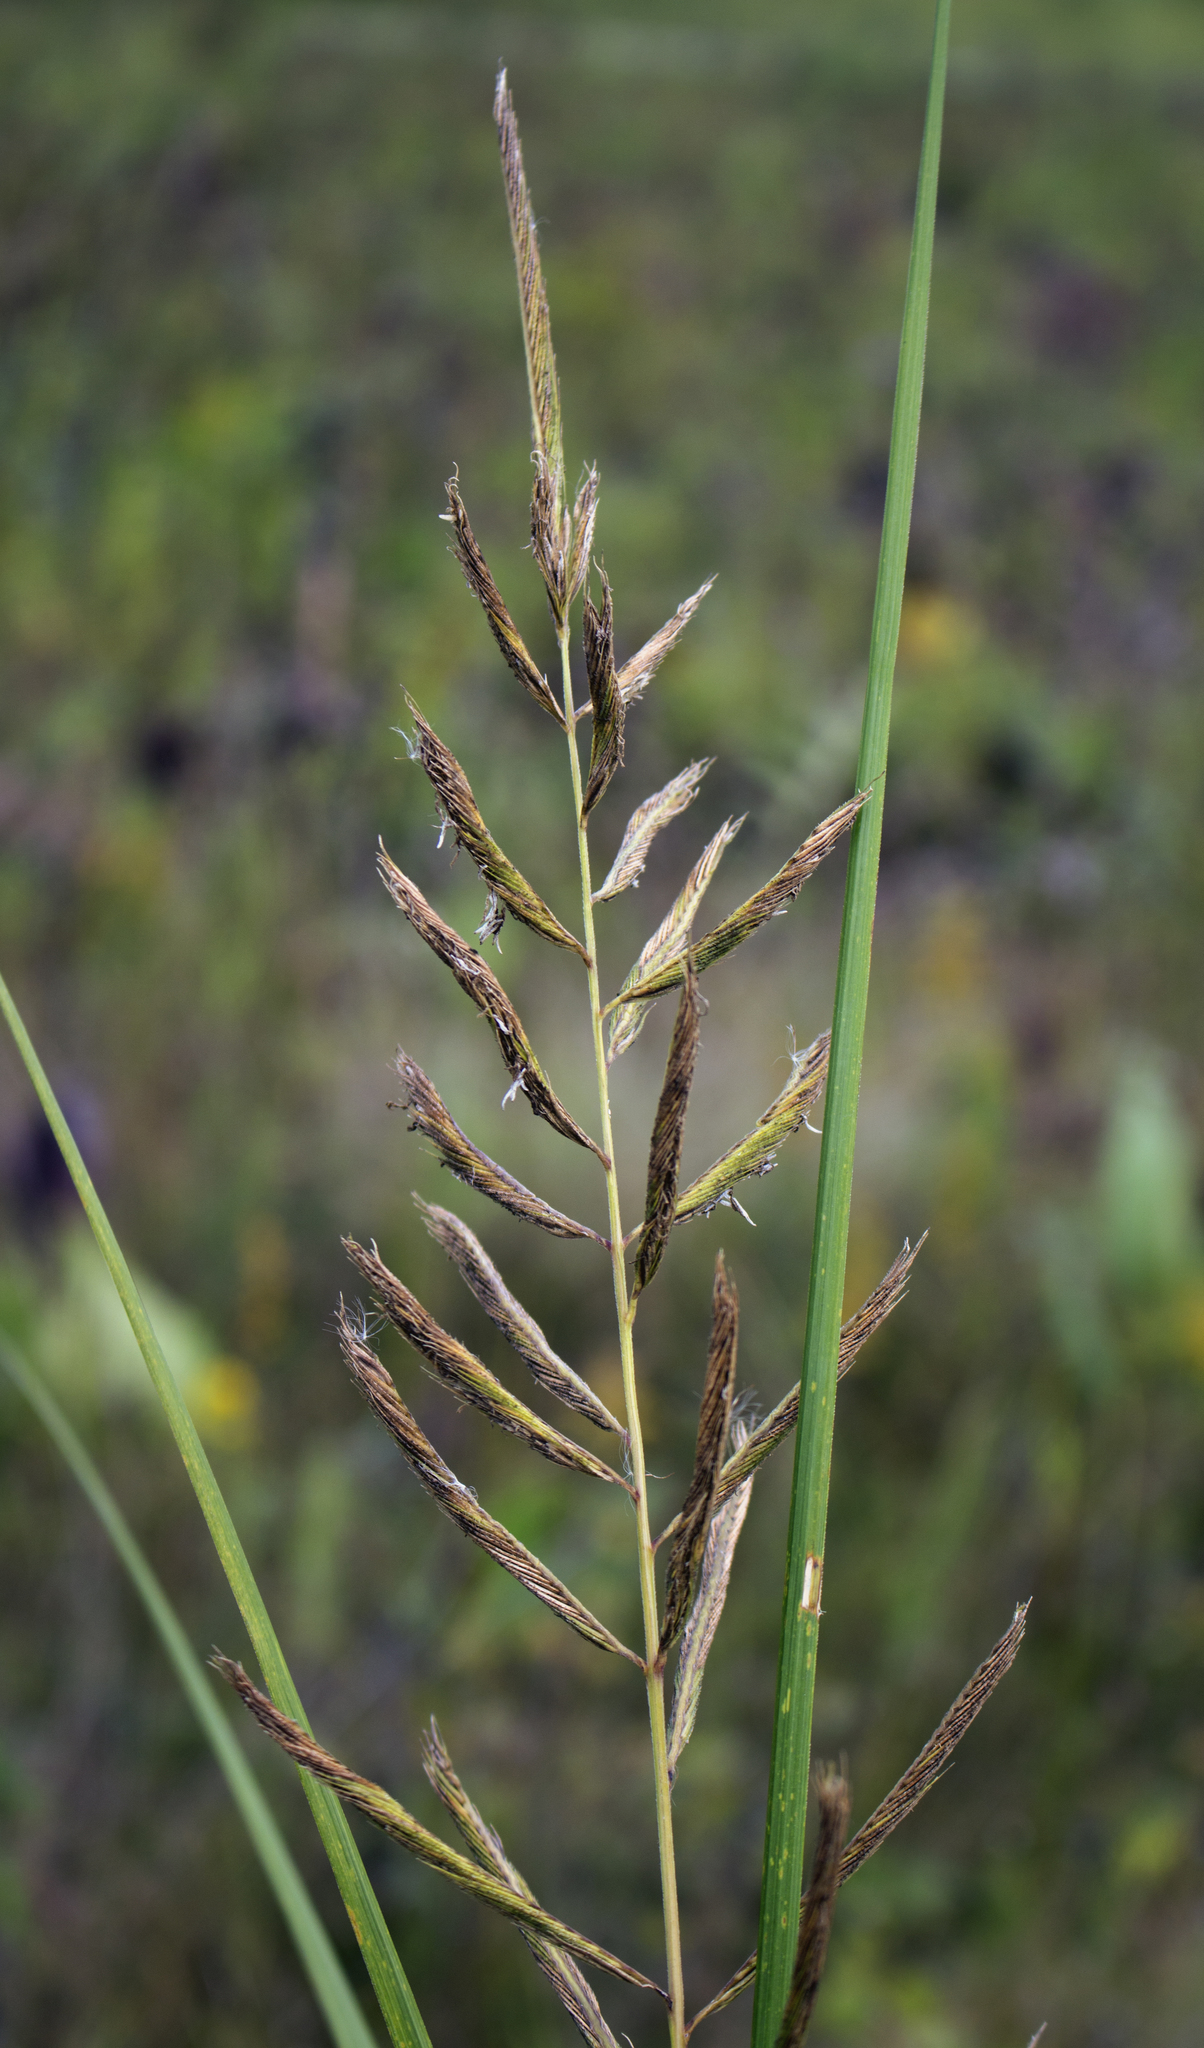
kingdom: Plantae
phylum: Tracheophyta
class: Liliopsida
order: Poales
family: Poaceae
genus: Sporobolus
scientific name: Sporobolus michauxianus
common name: Freshwater cordgrass
